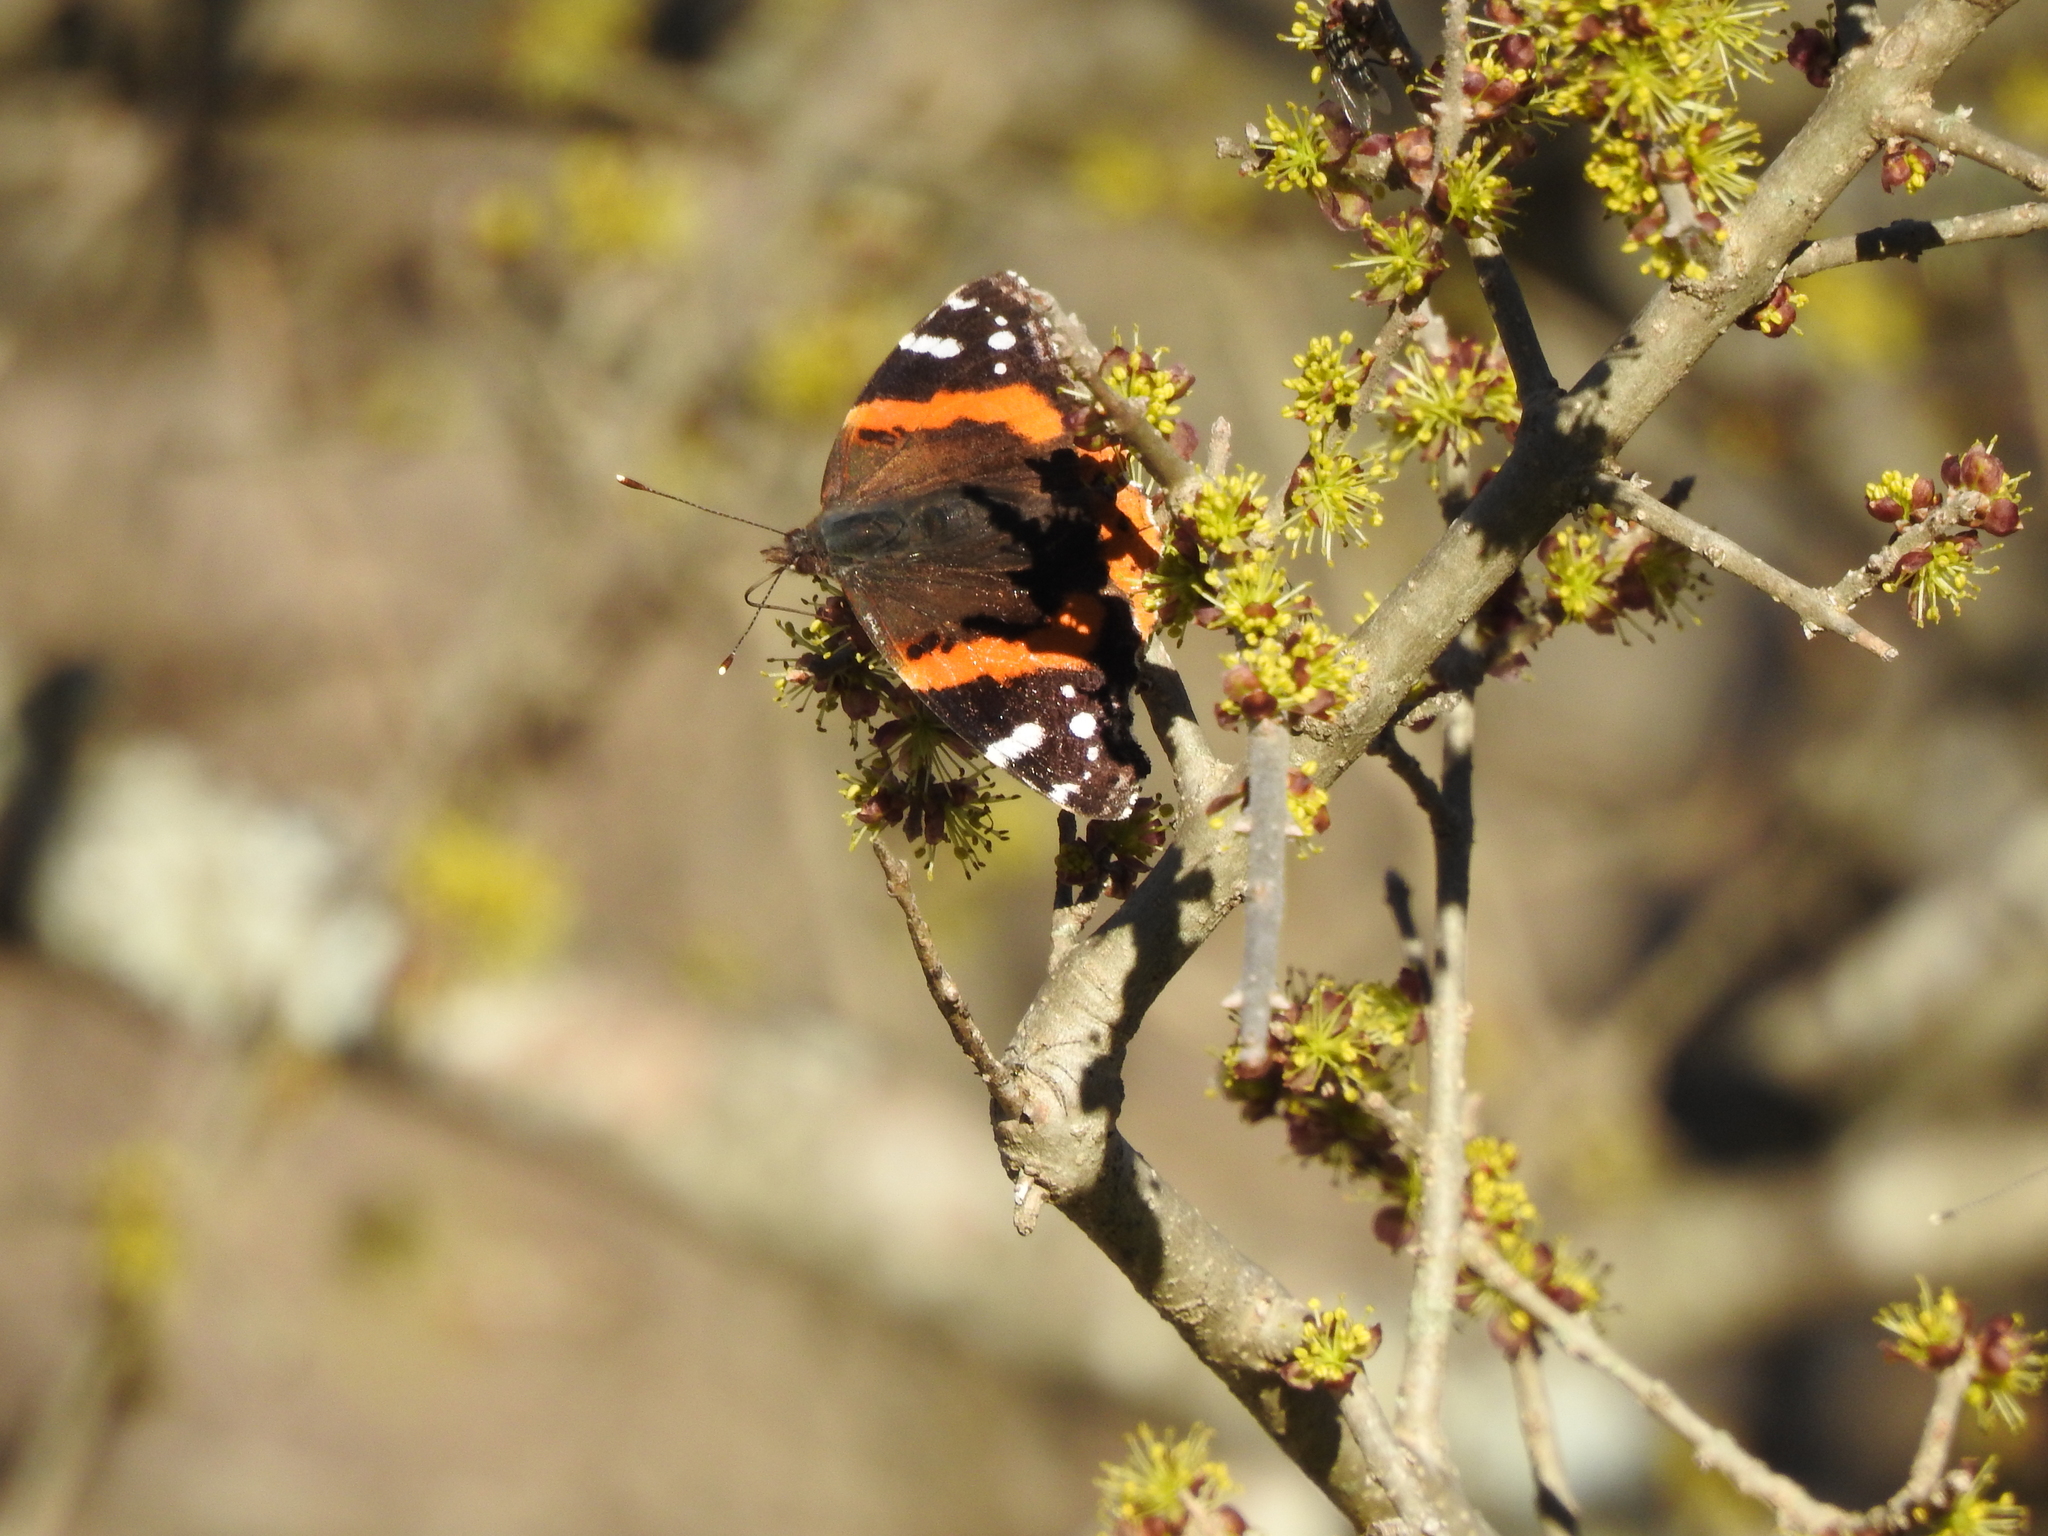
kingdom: Animalia
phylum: Arthropoda
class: Insecta
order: Lepidoptera
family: Nymphalidae
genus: Vanessa
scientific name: Vanessa atalanta
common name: Red admiral
